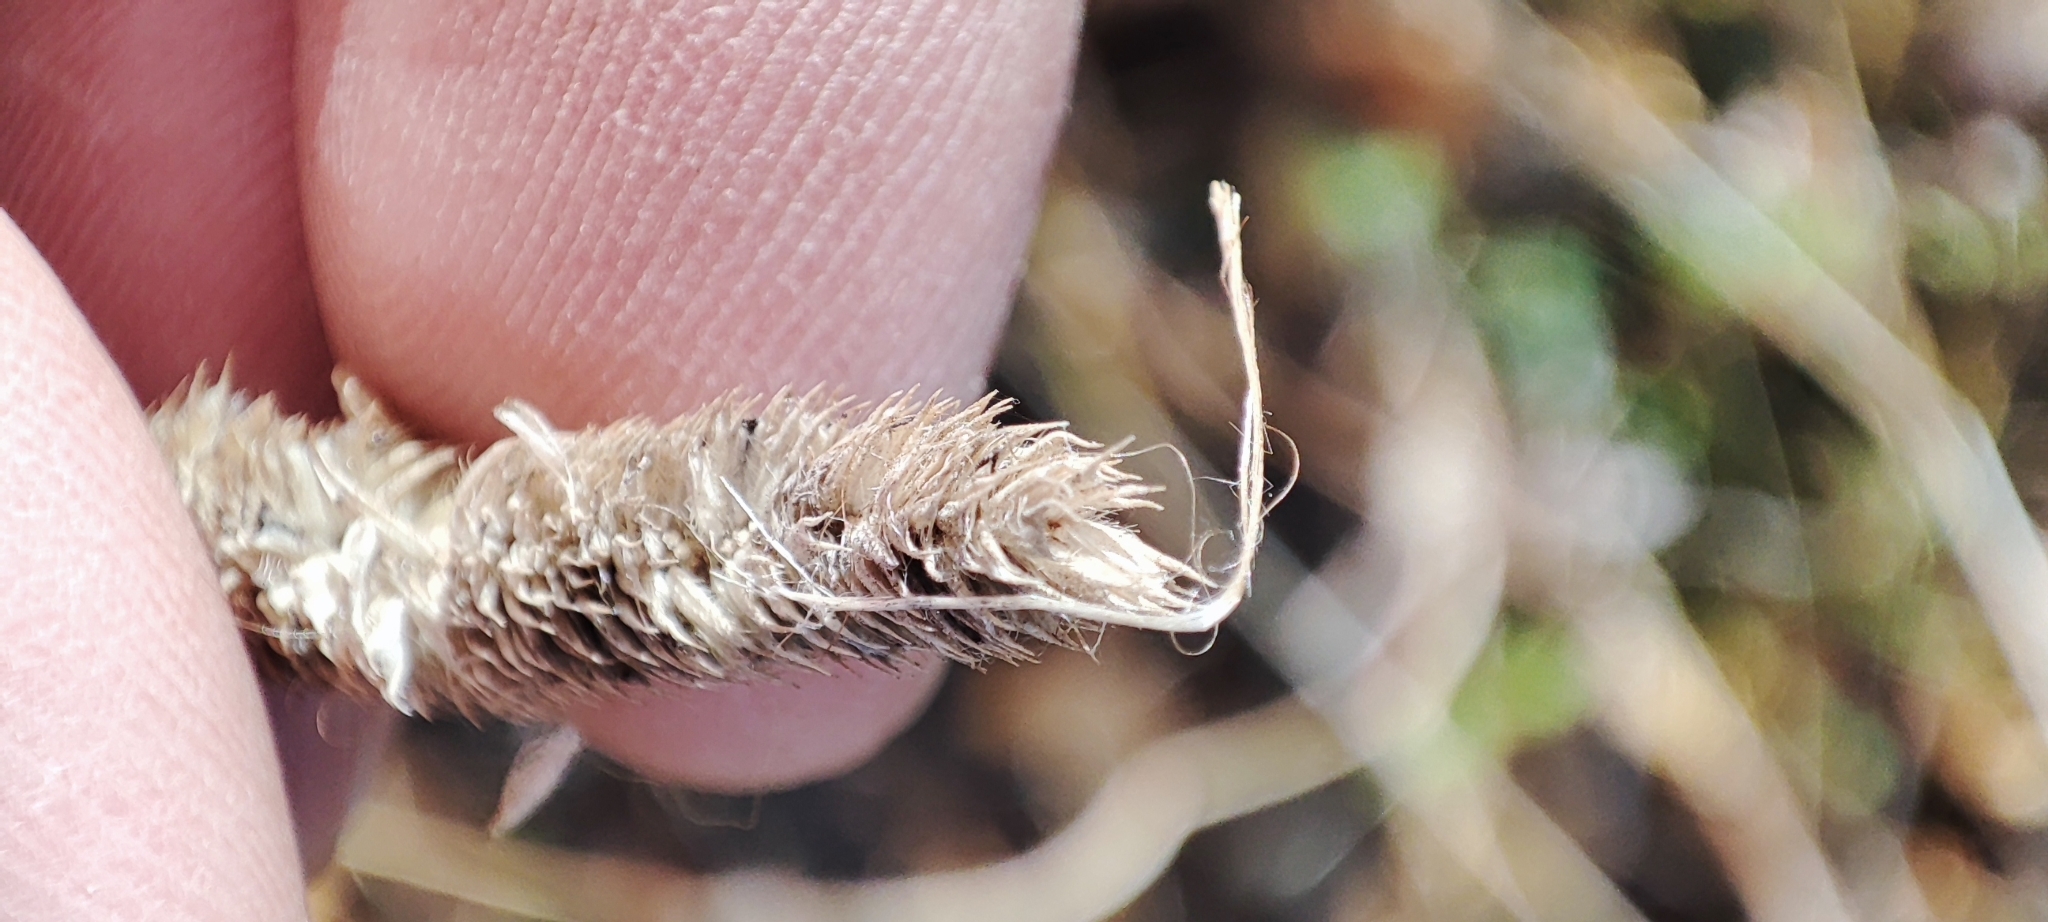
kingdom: Plantae
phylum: Tracheophyta
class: Liliopsida
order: Poales
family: Poaceae
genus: Phleum
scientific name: Phleum pratense
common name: Timothy grass
